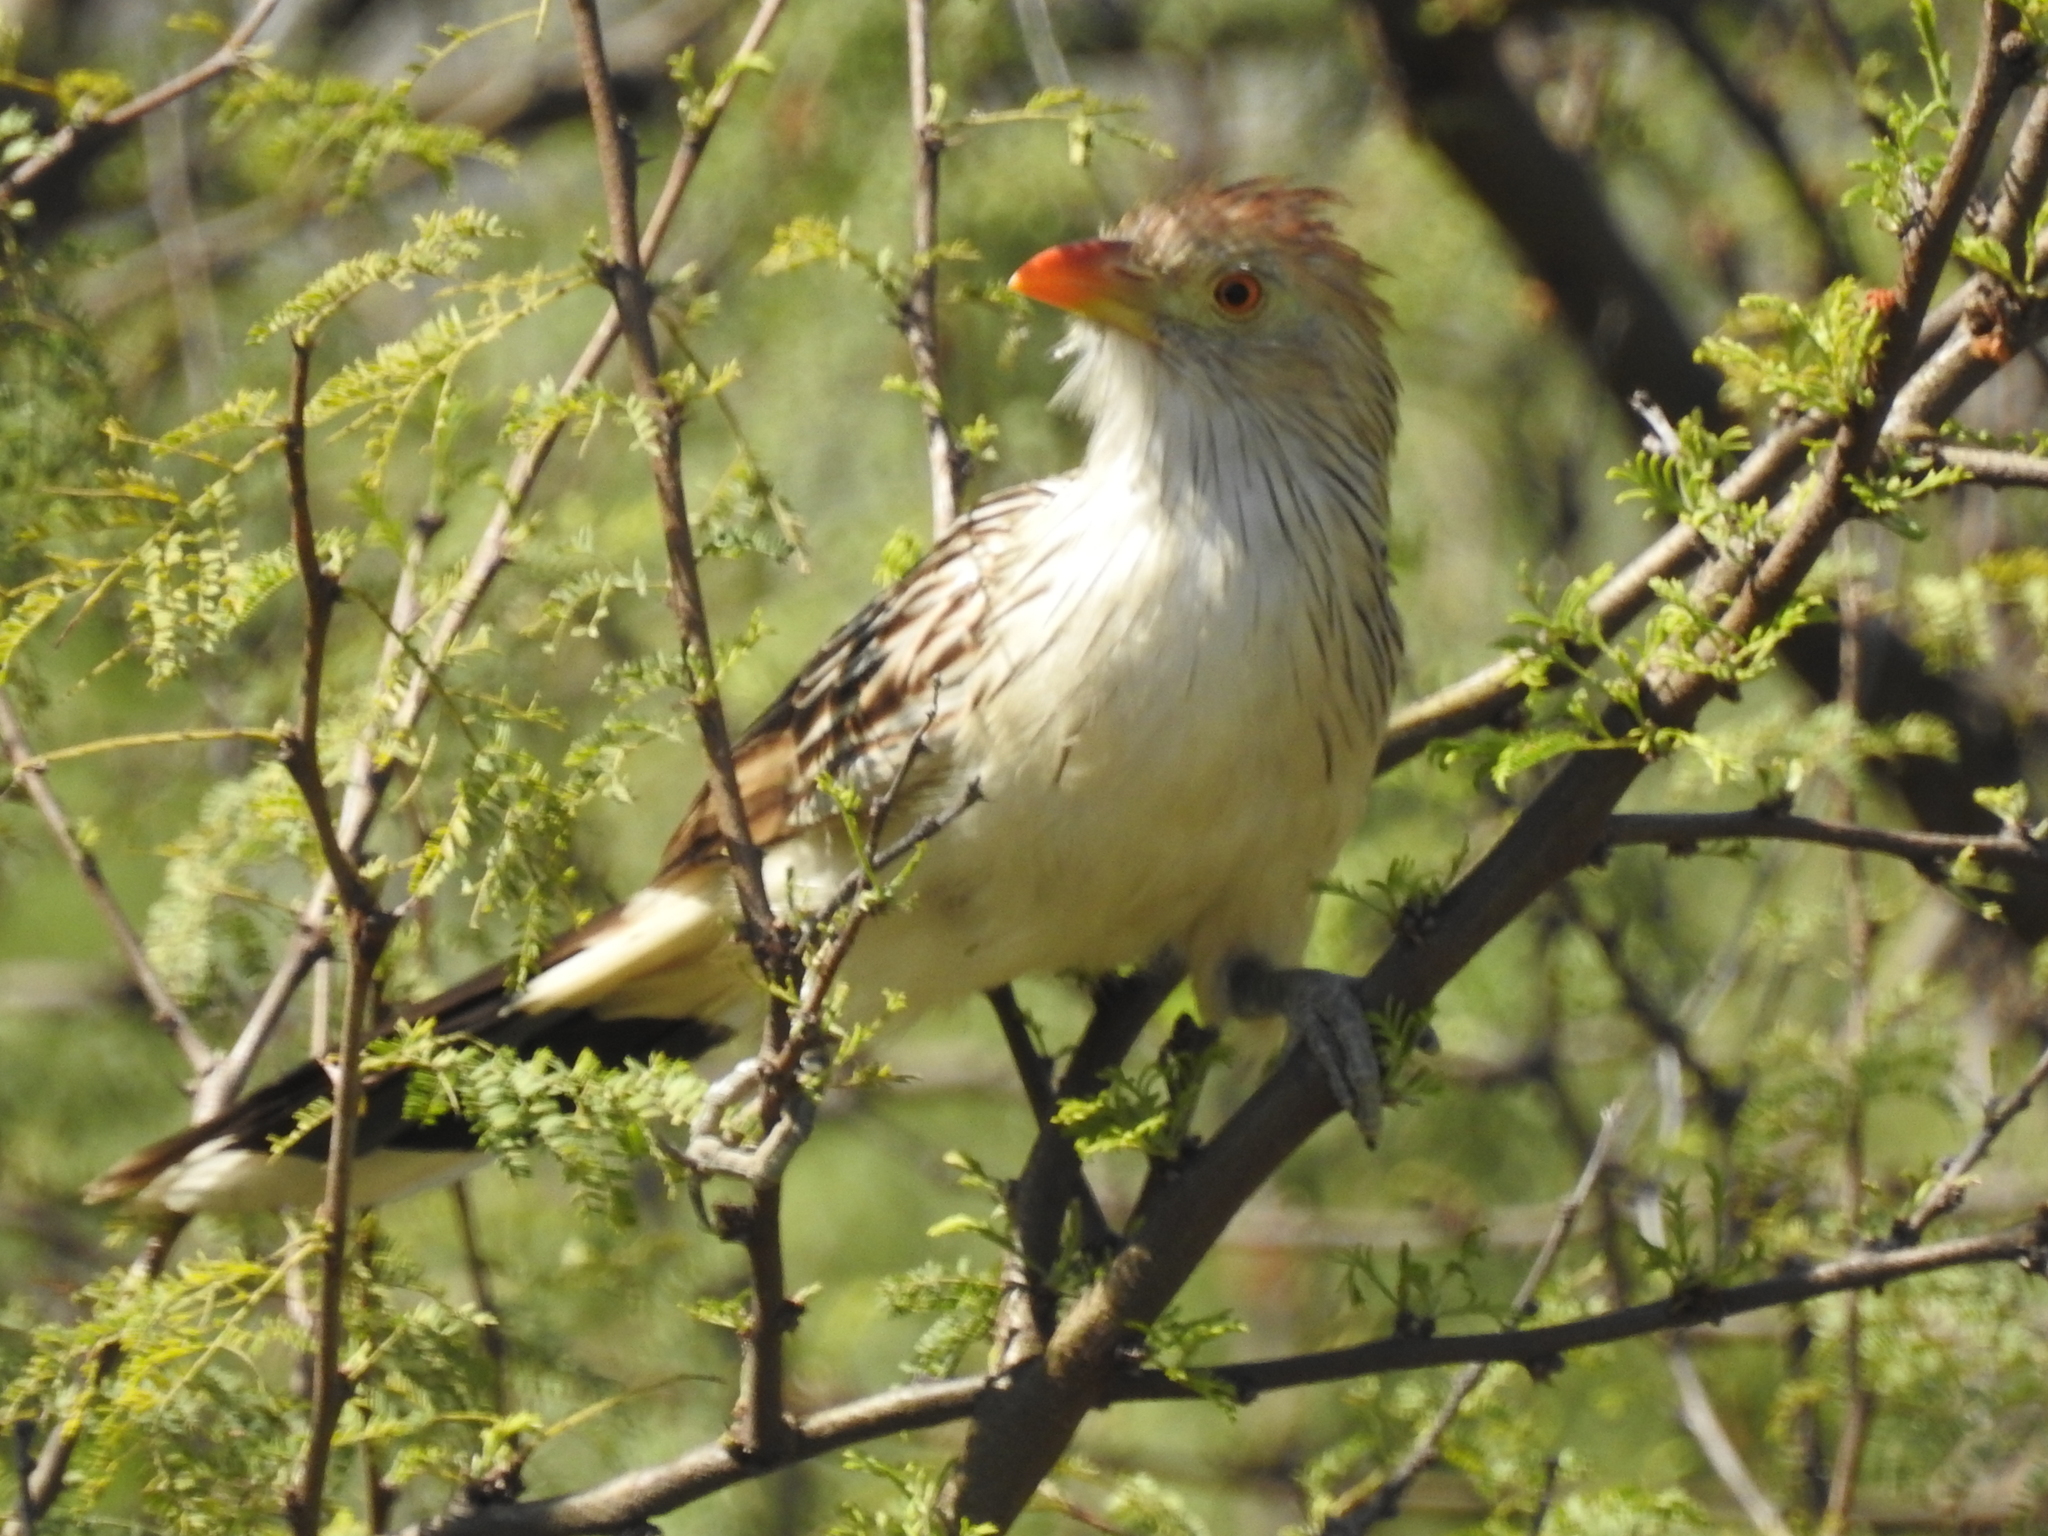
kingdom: Animalia
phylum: Chordata
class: Aves
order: Cuculiformes
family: Cuculidae
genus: Guira
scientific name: Guira guira
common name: Guira cuckoo
